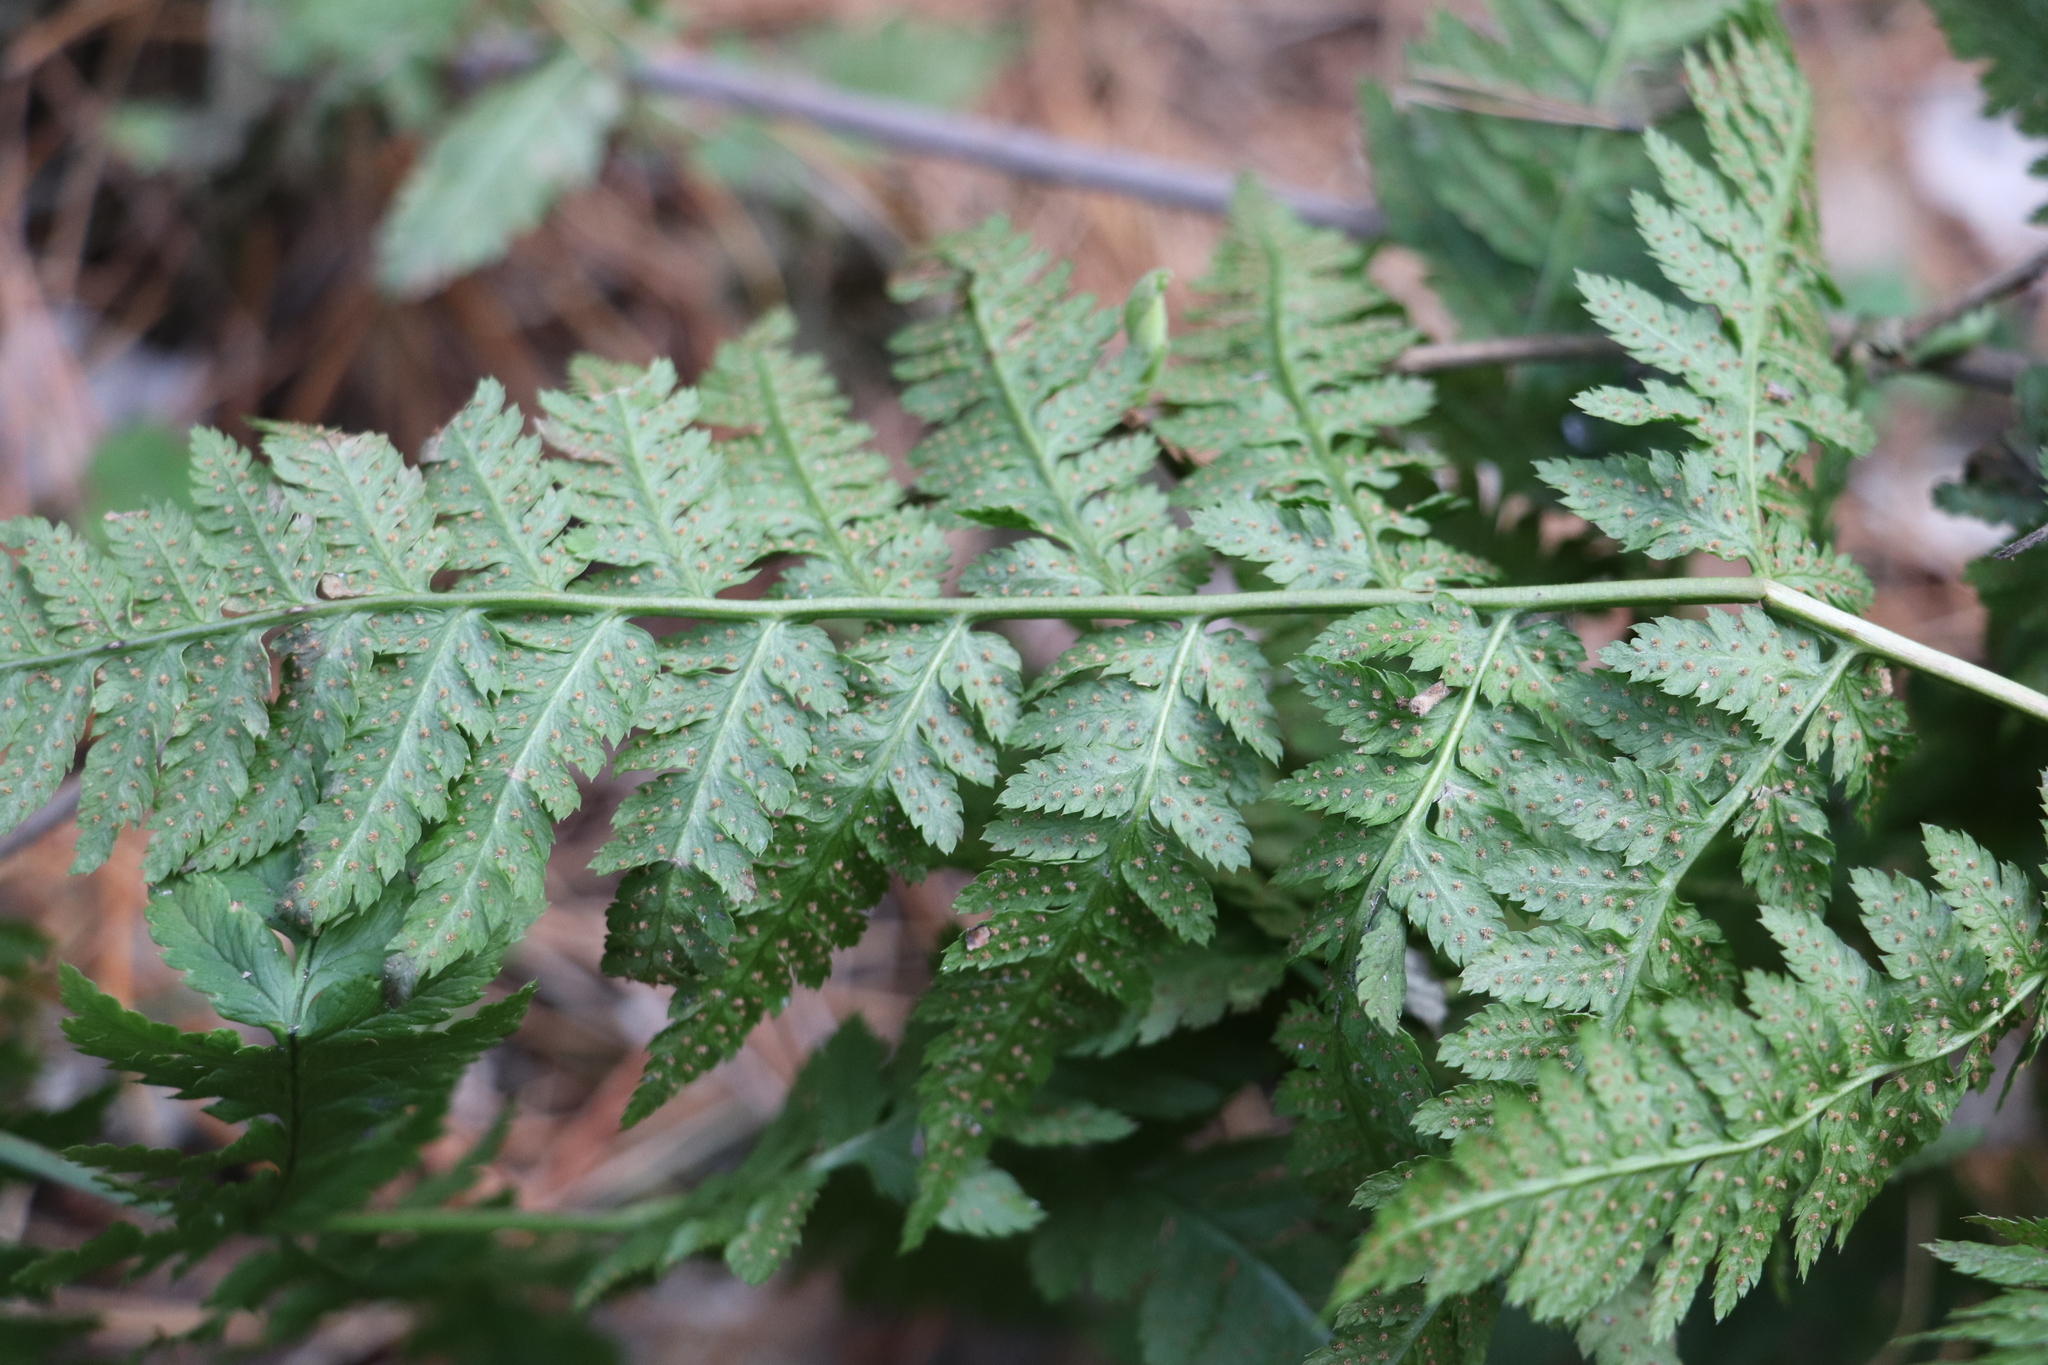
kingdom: Plantae
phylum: Tracheophyta
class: Polypodiopsida
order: Polypodiales
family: Dryopteridaceae
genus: Dryopteris
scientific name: Dryopteris carthusiana
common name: Narrow buckler-fern
